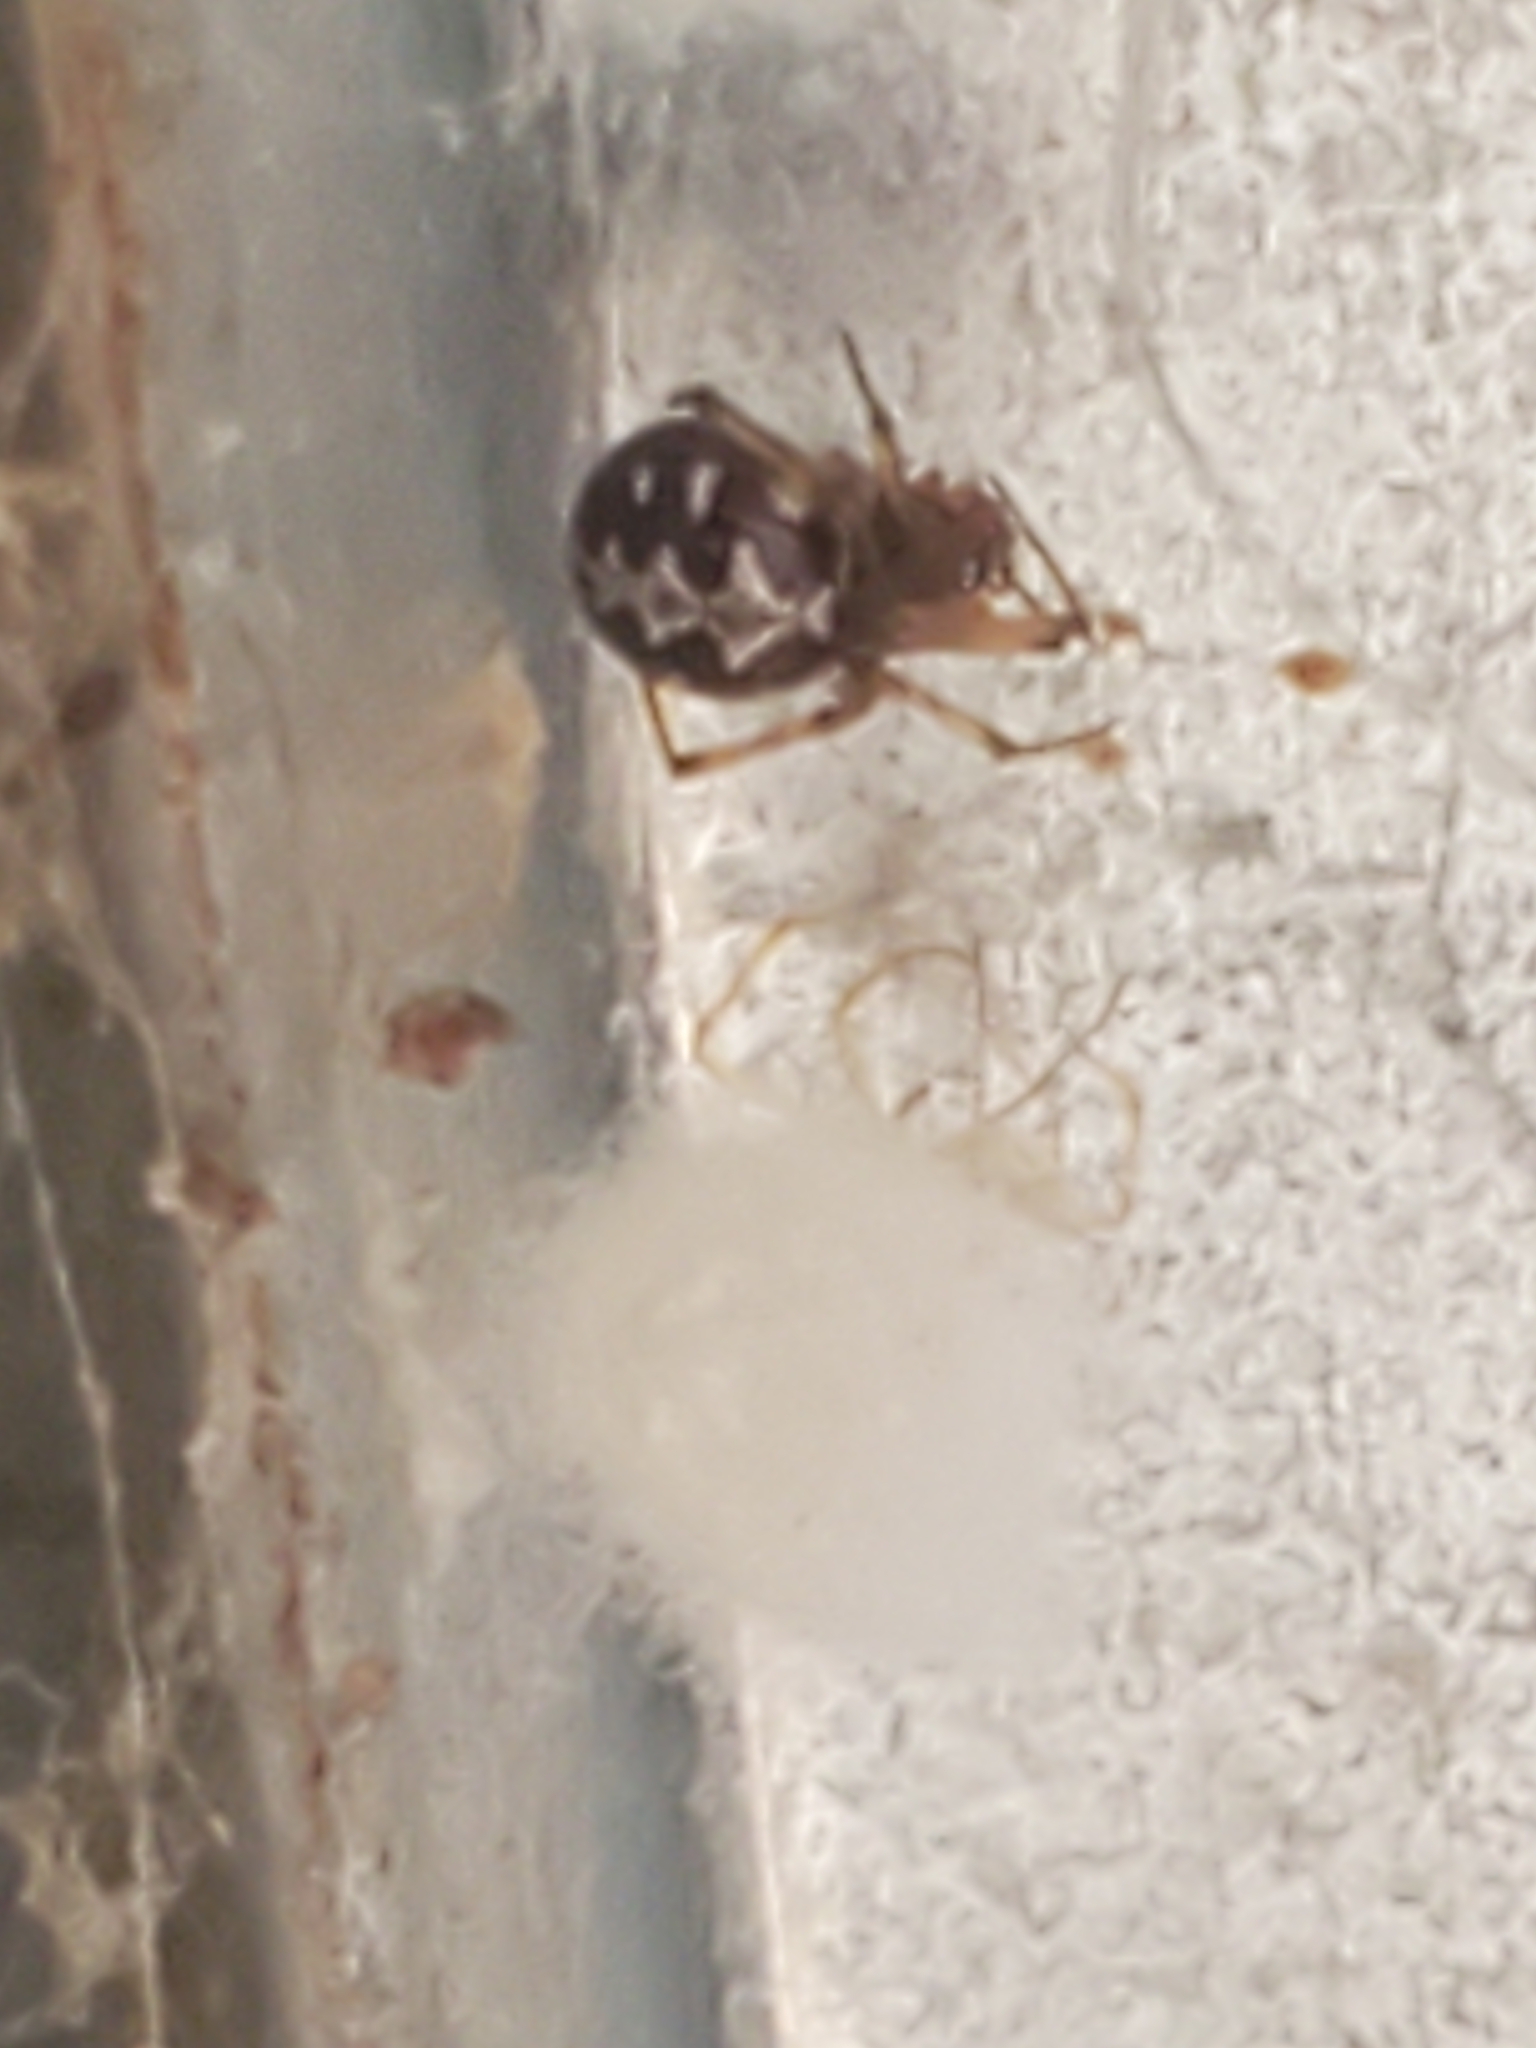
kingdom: Animalia
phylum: Arthropoda
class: Arachnida
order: Araneae
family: Theridiidae
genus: Steatoda
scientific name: Steatoda triangulosa
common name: Triangulate bud spider
